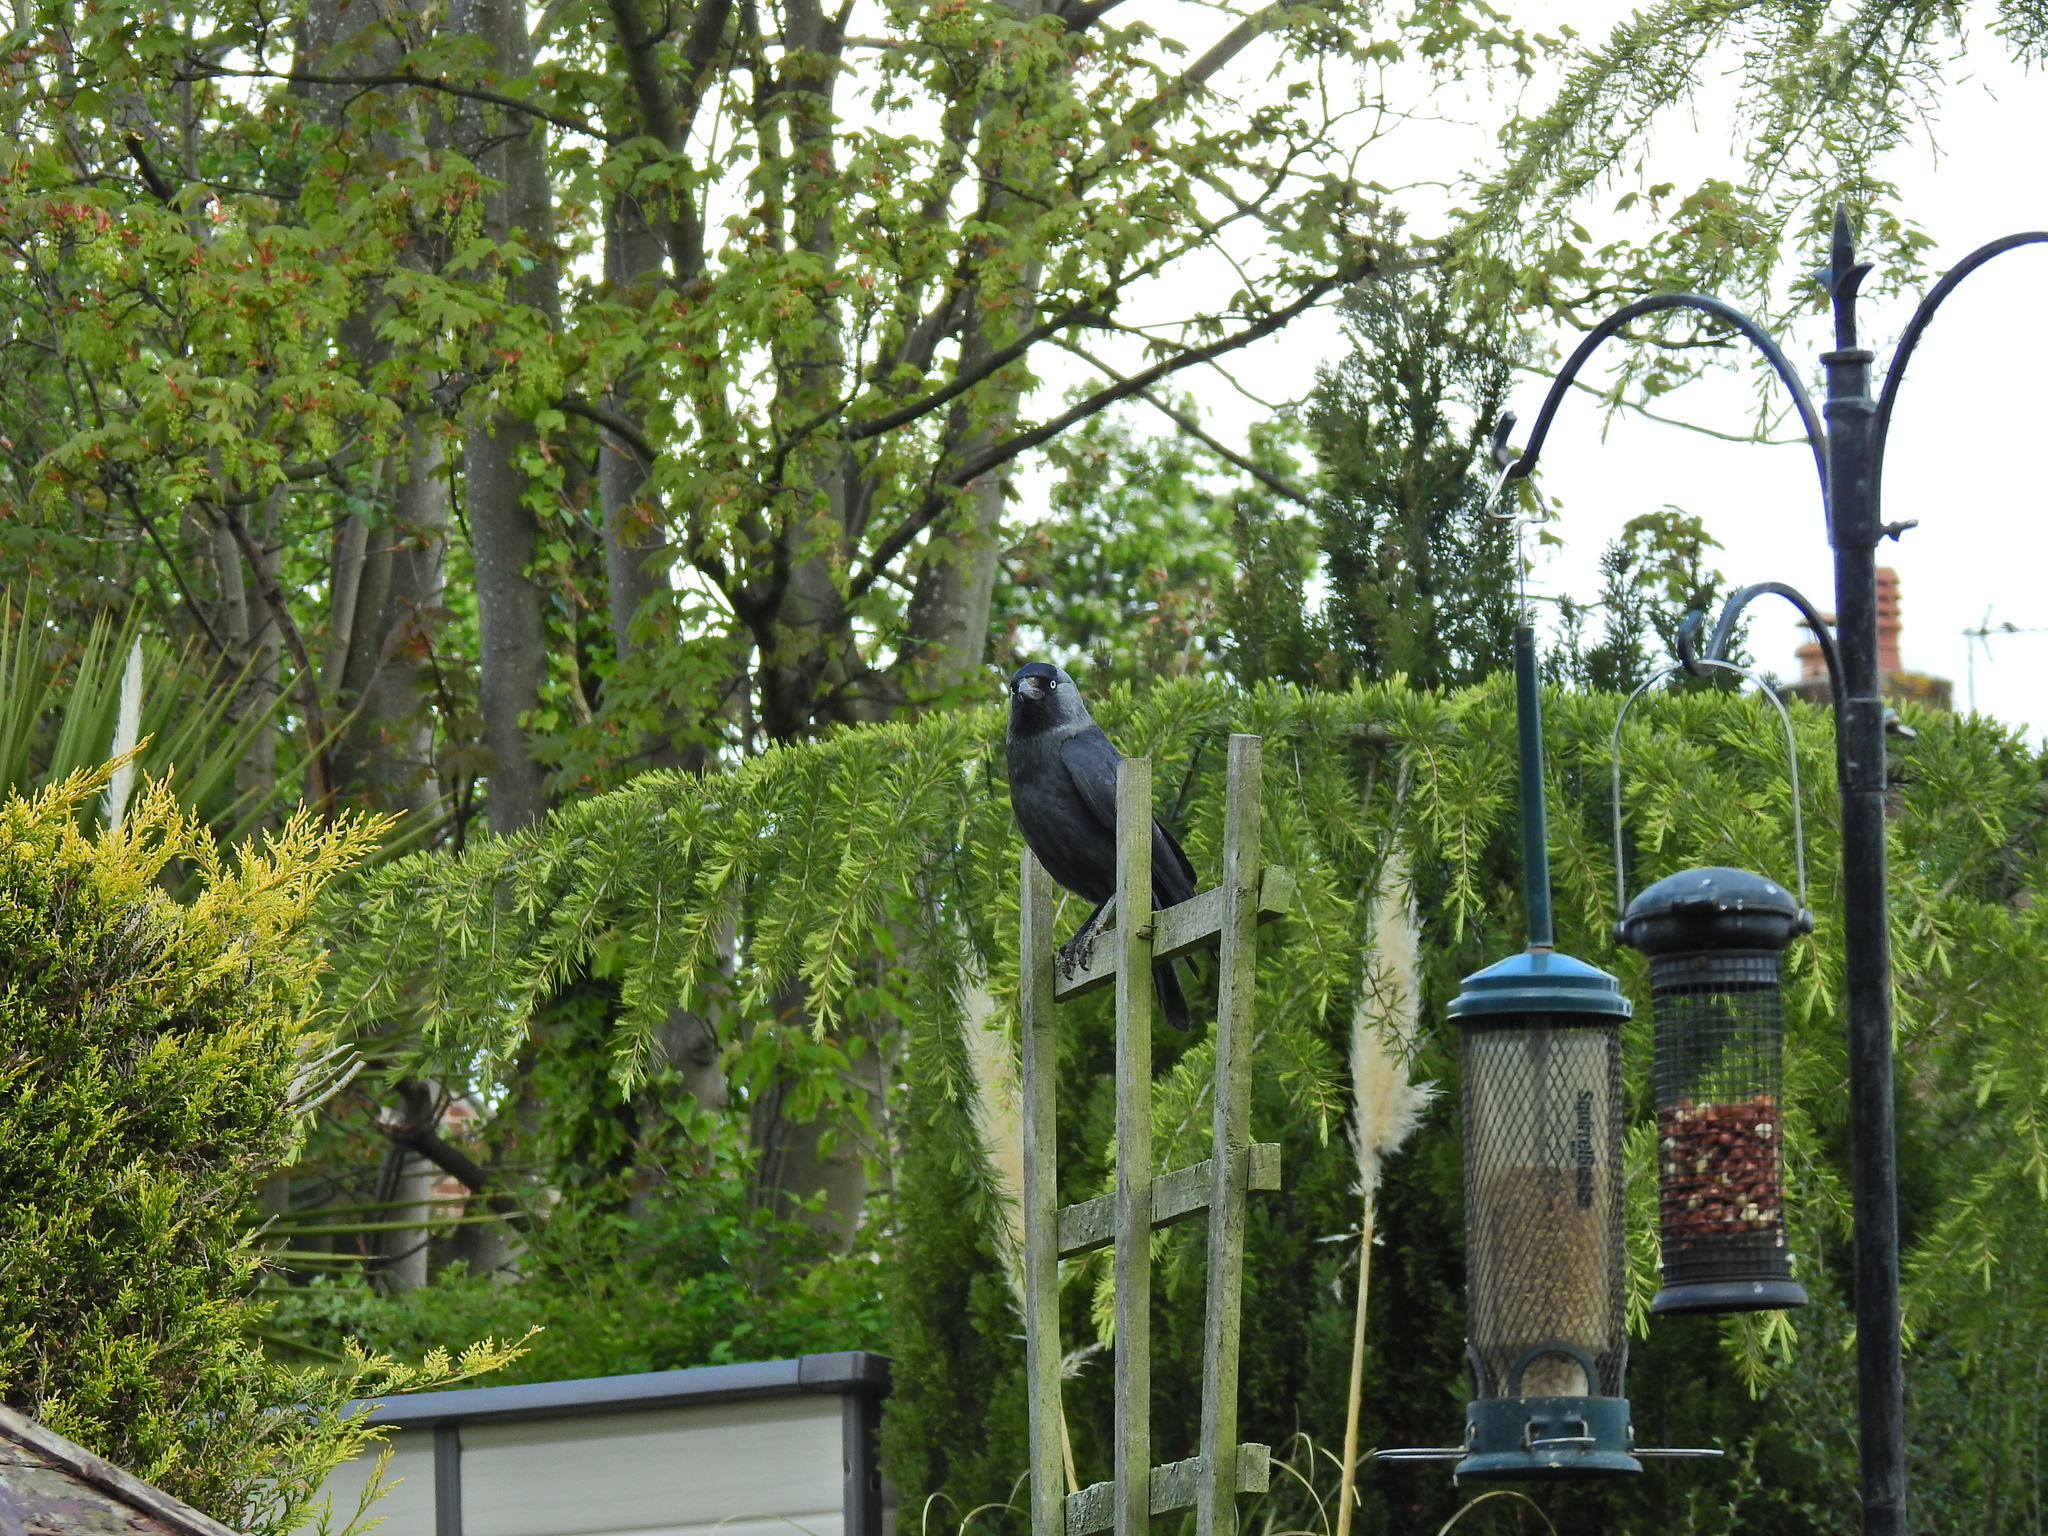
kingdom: Animalia
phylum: Chordata
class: Aves
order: Passeriformes
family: Corvidae
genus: Coloeus
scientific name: Coloeus monedula
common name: Western jackdaw
